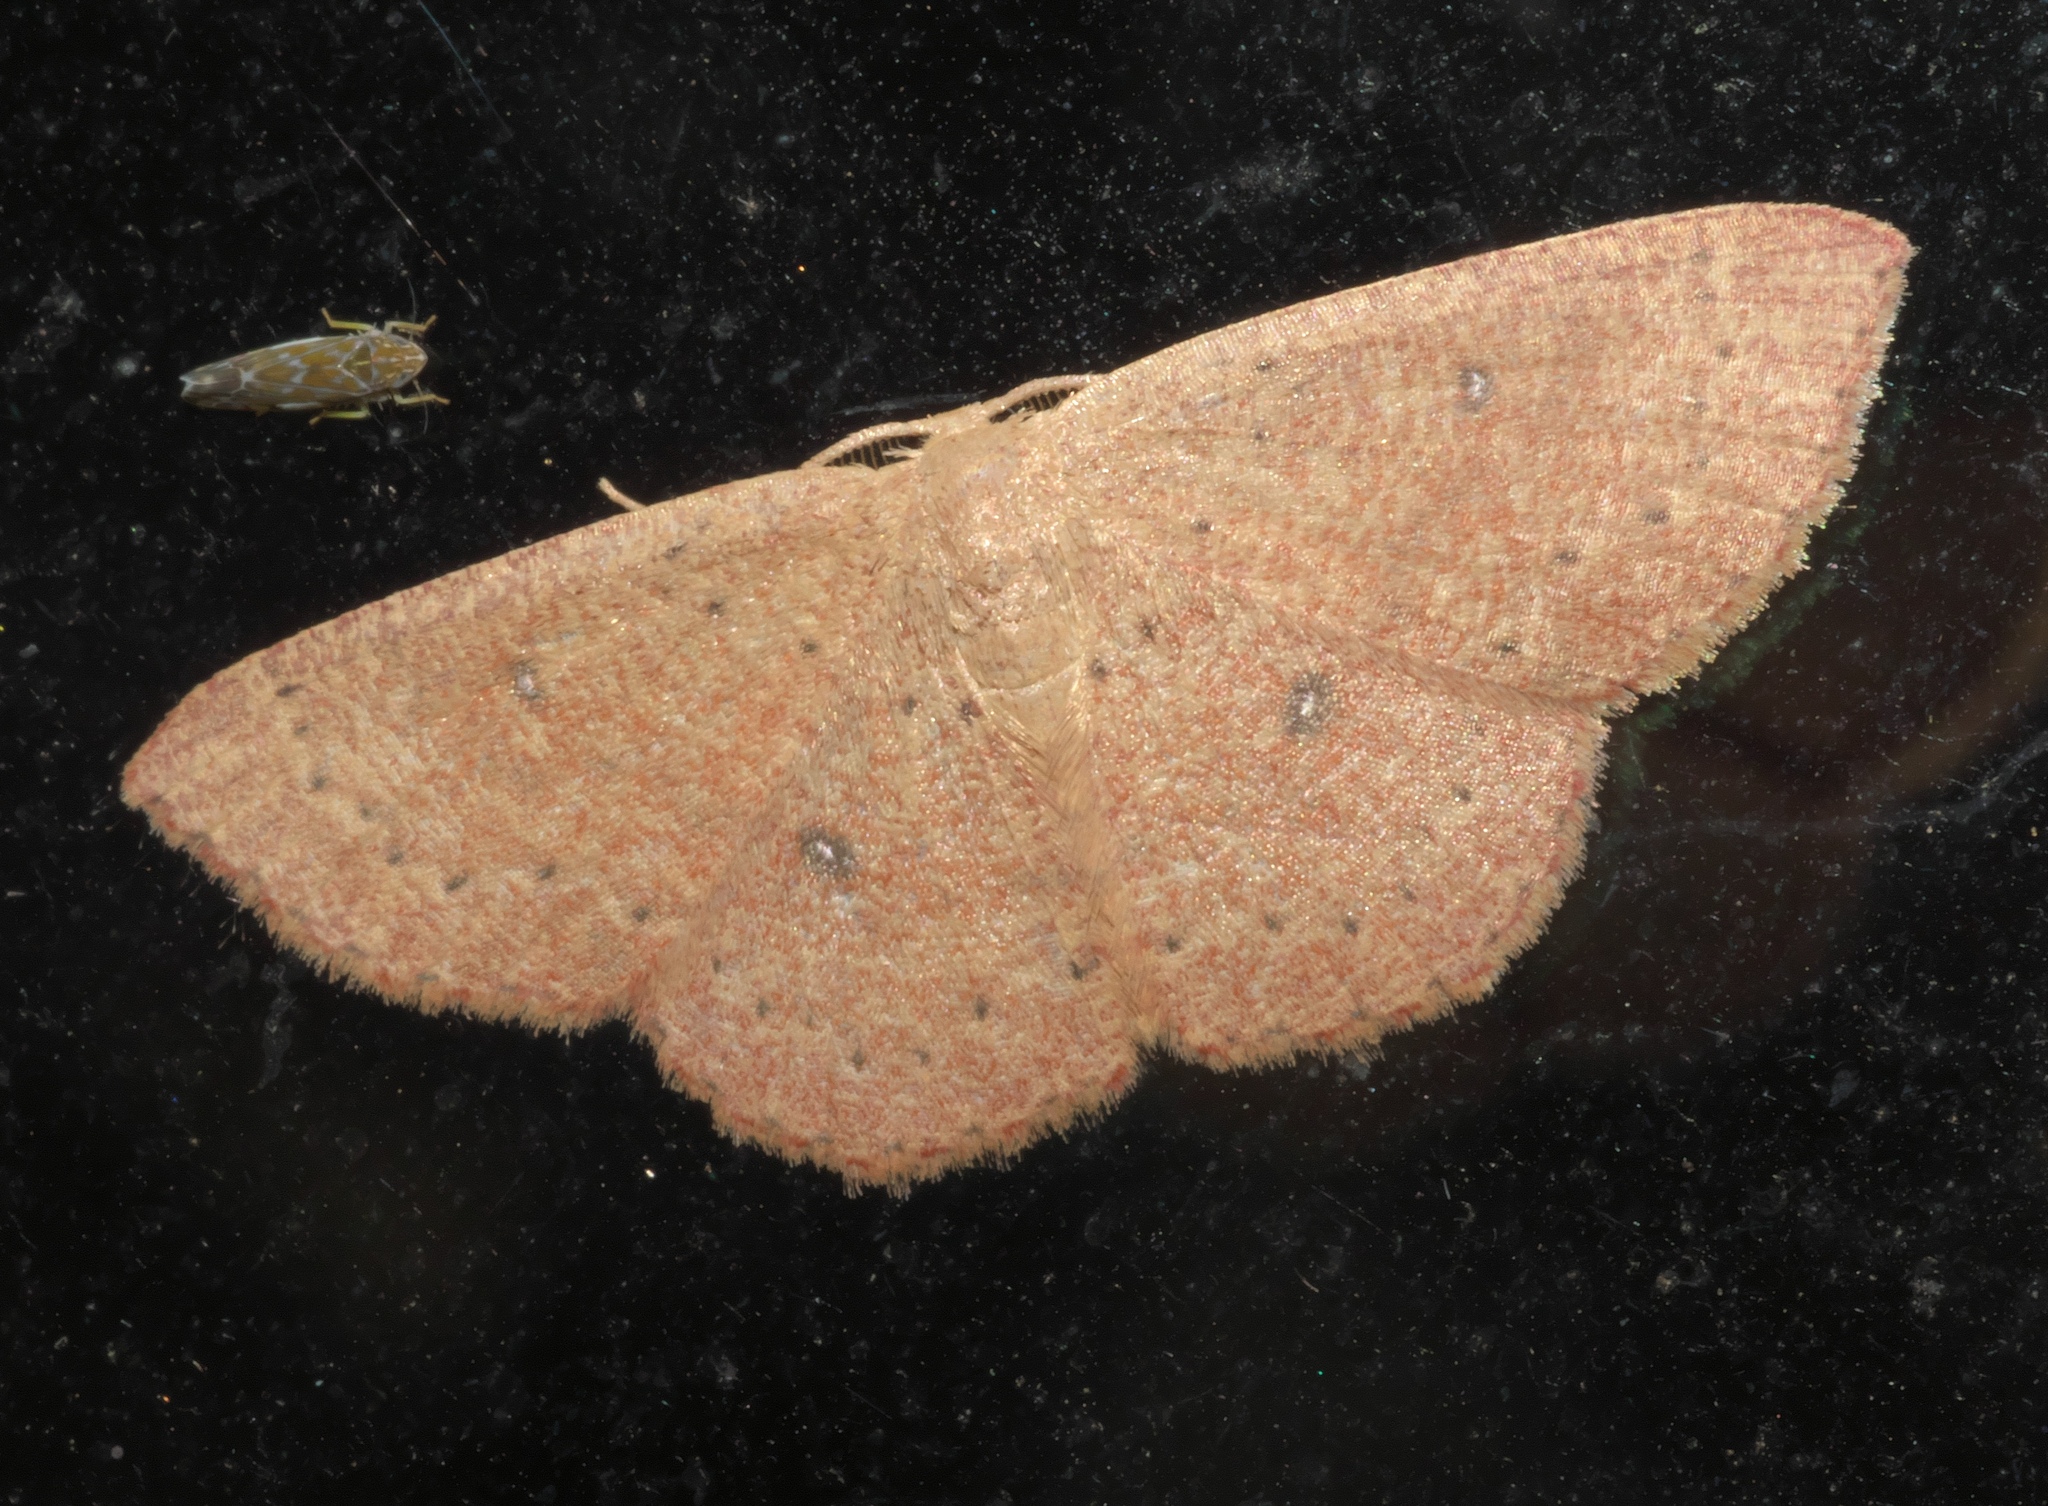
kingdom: Animalia
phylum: Arthropoda
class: Insecta
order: Lepidoptera
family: Geometridae
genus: Cyclophora
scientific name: Cyclophora packardi
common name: Packard's wave
